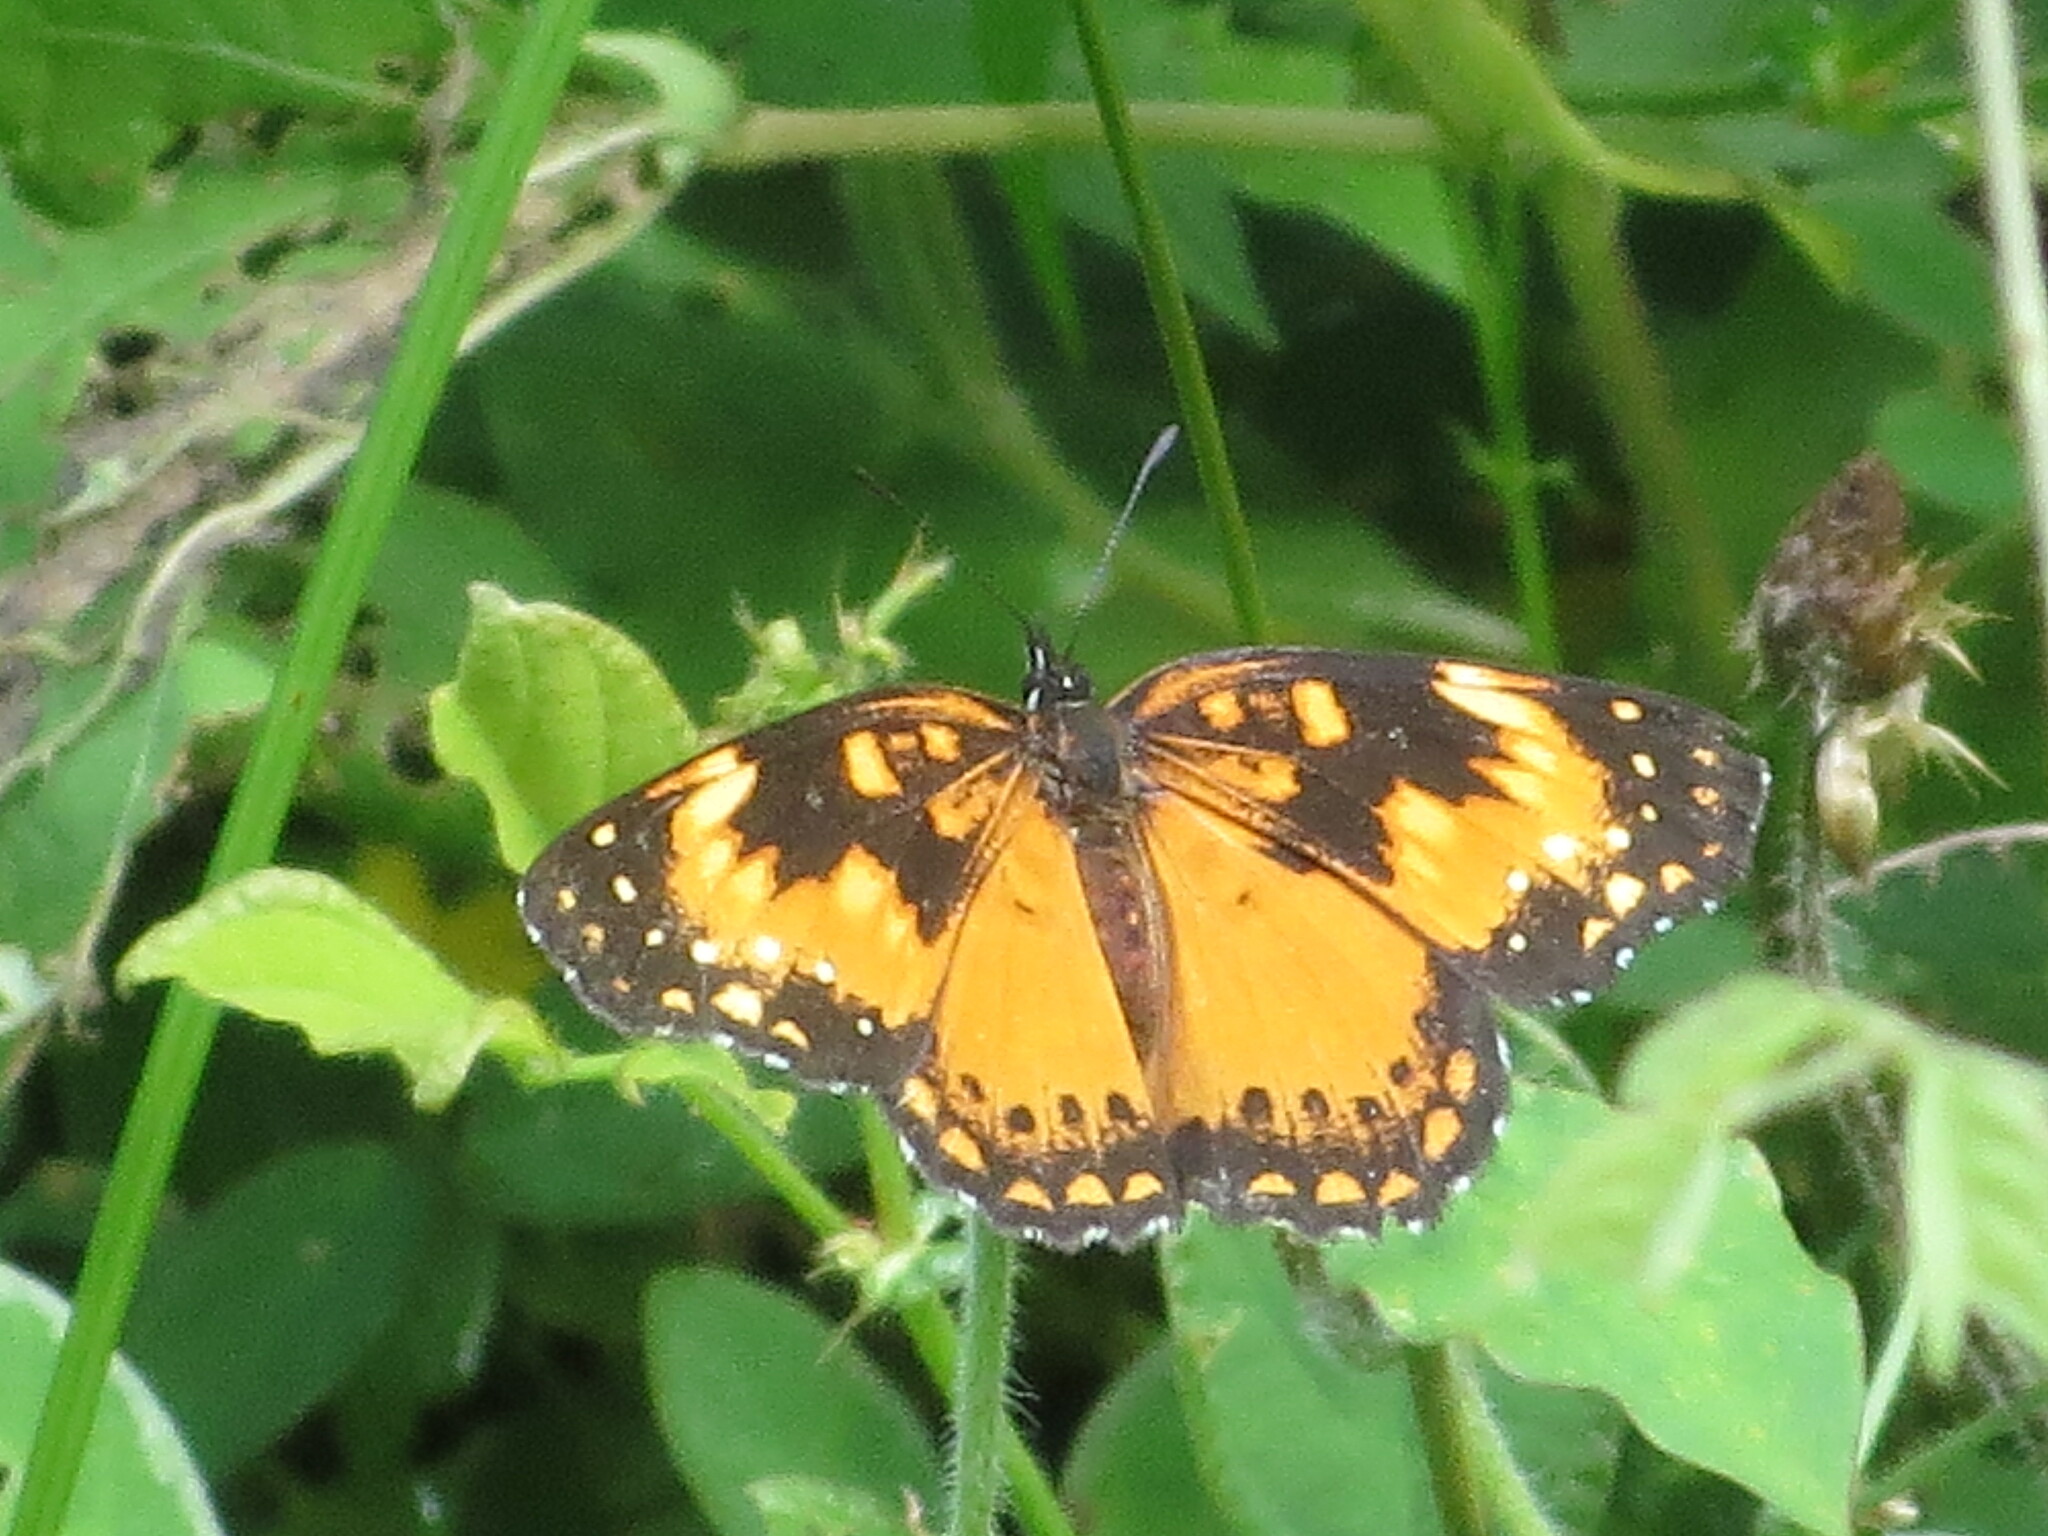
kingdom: Animalia
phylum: Arthropoda
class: Insecta
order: Lepidoptera
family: Nymphalidae
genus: Chlosyne
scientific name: Chlosyne lacinia
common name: Bordered patch
